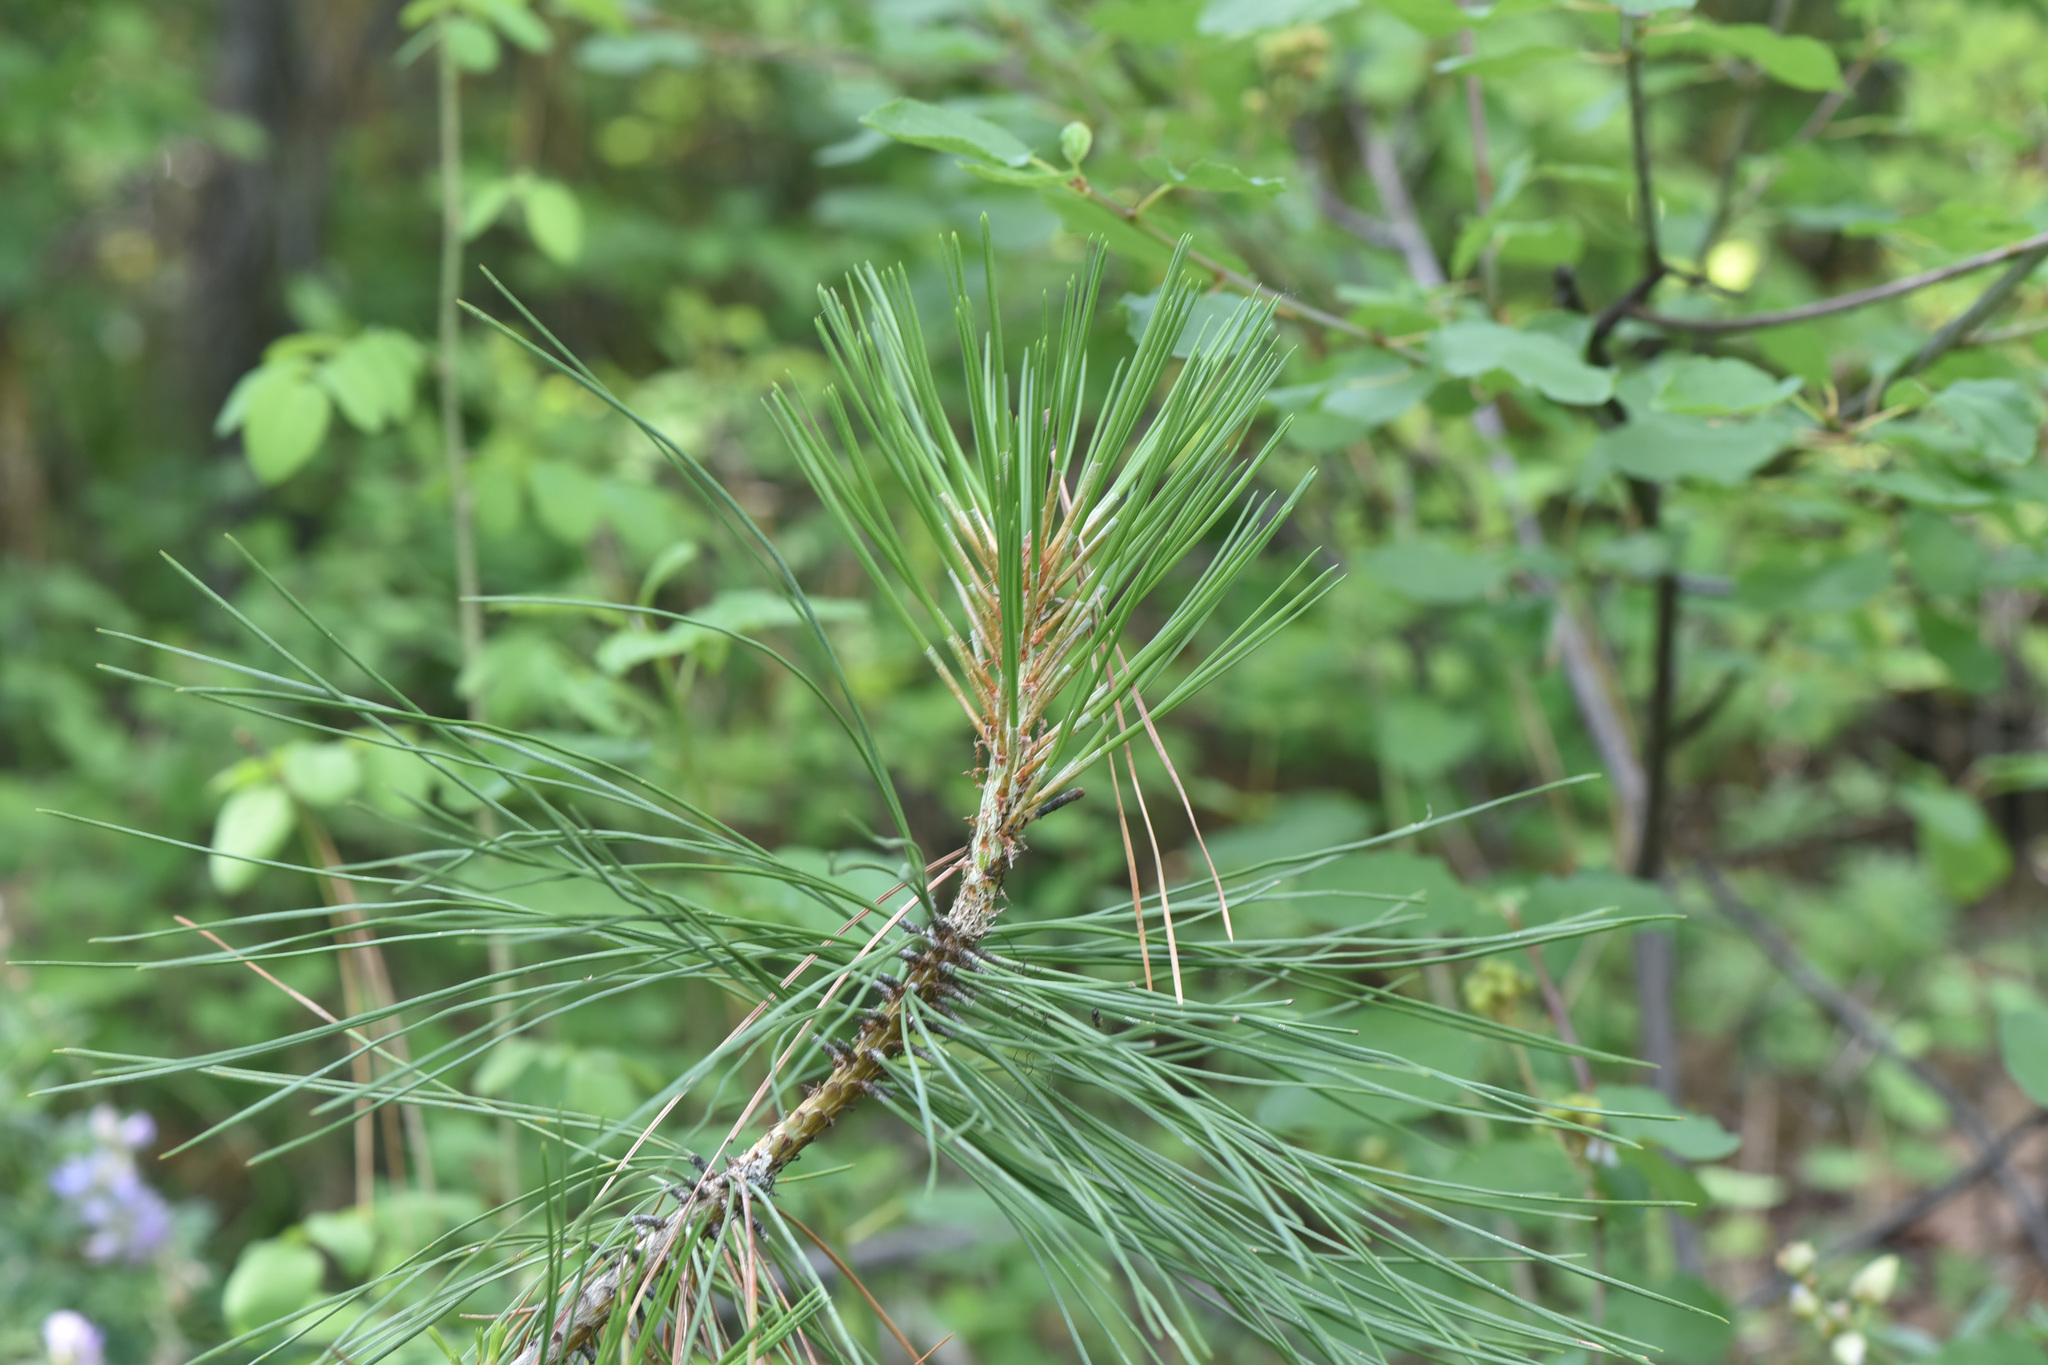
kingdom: Plantae
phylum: Tracheophyta
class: Pinopsida
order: Pinales
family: Pinaceae
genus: Pinus
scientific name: Pinus ponderosa
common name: Western yellow-pine
